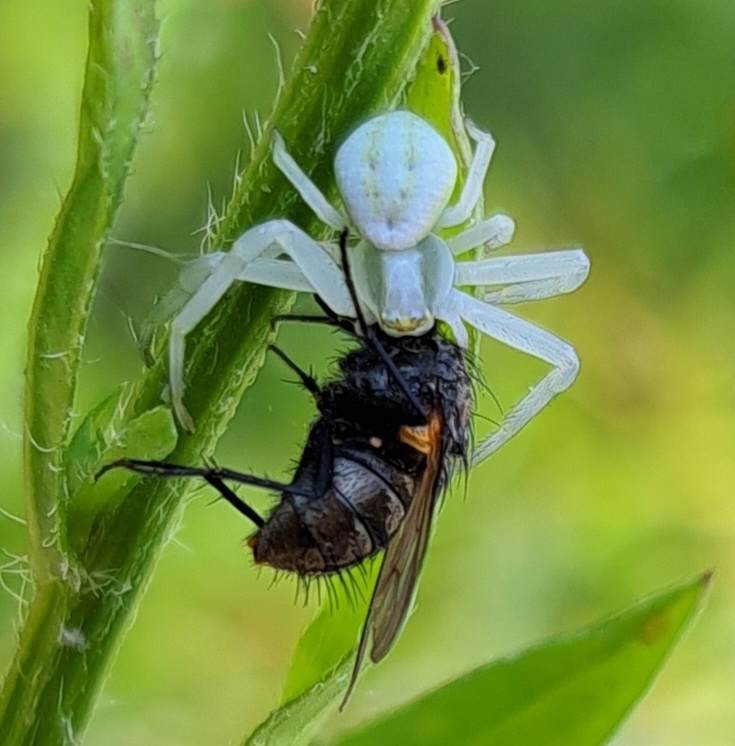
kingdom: Animalia
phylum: Arthropoda
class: Arachnida
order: Araneae
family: Thomisidae
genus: Misumena
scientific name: Misumena vatia
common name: Goldenrod crab spider
